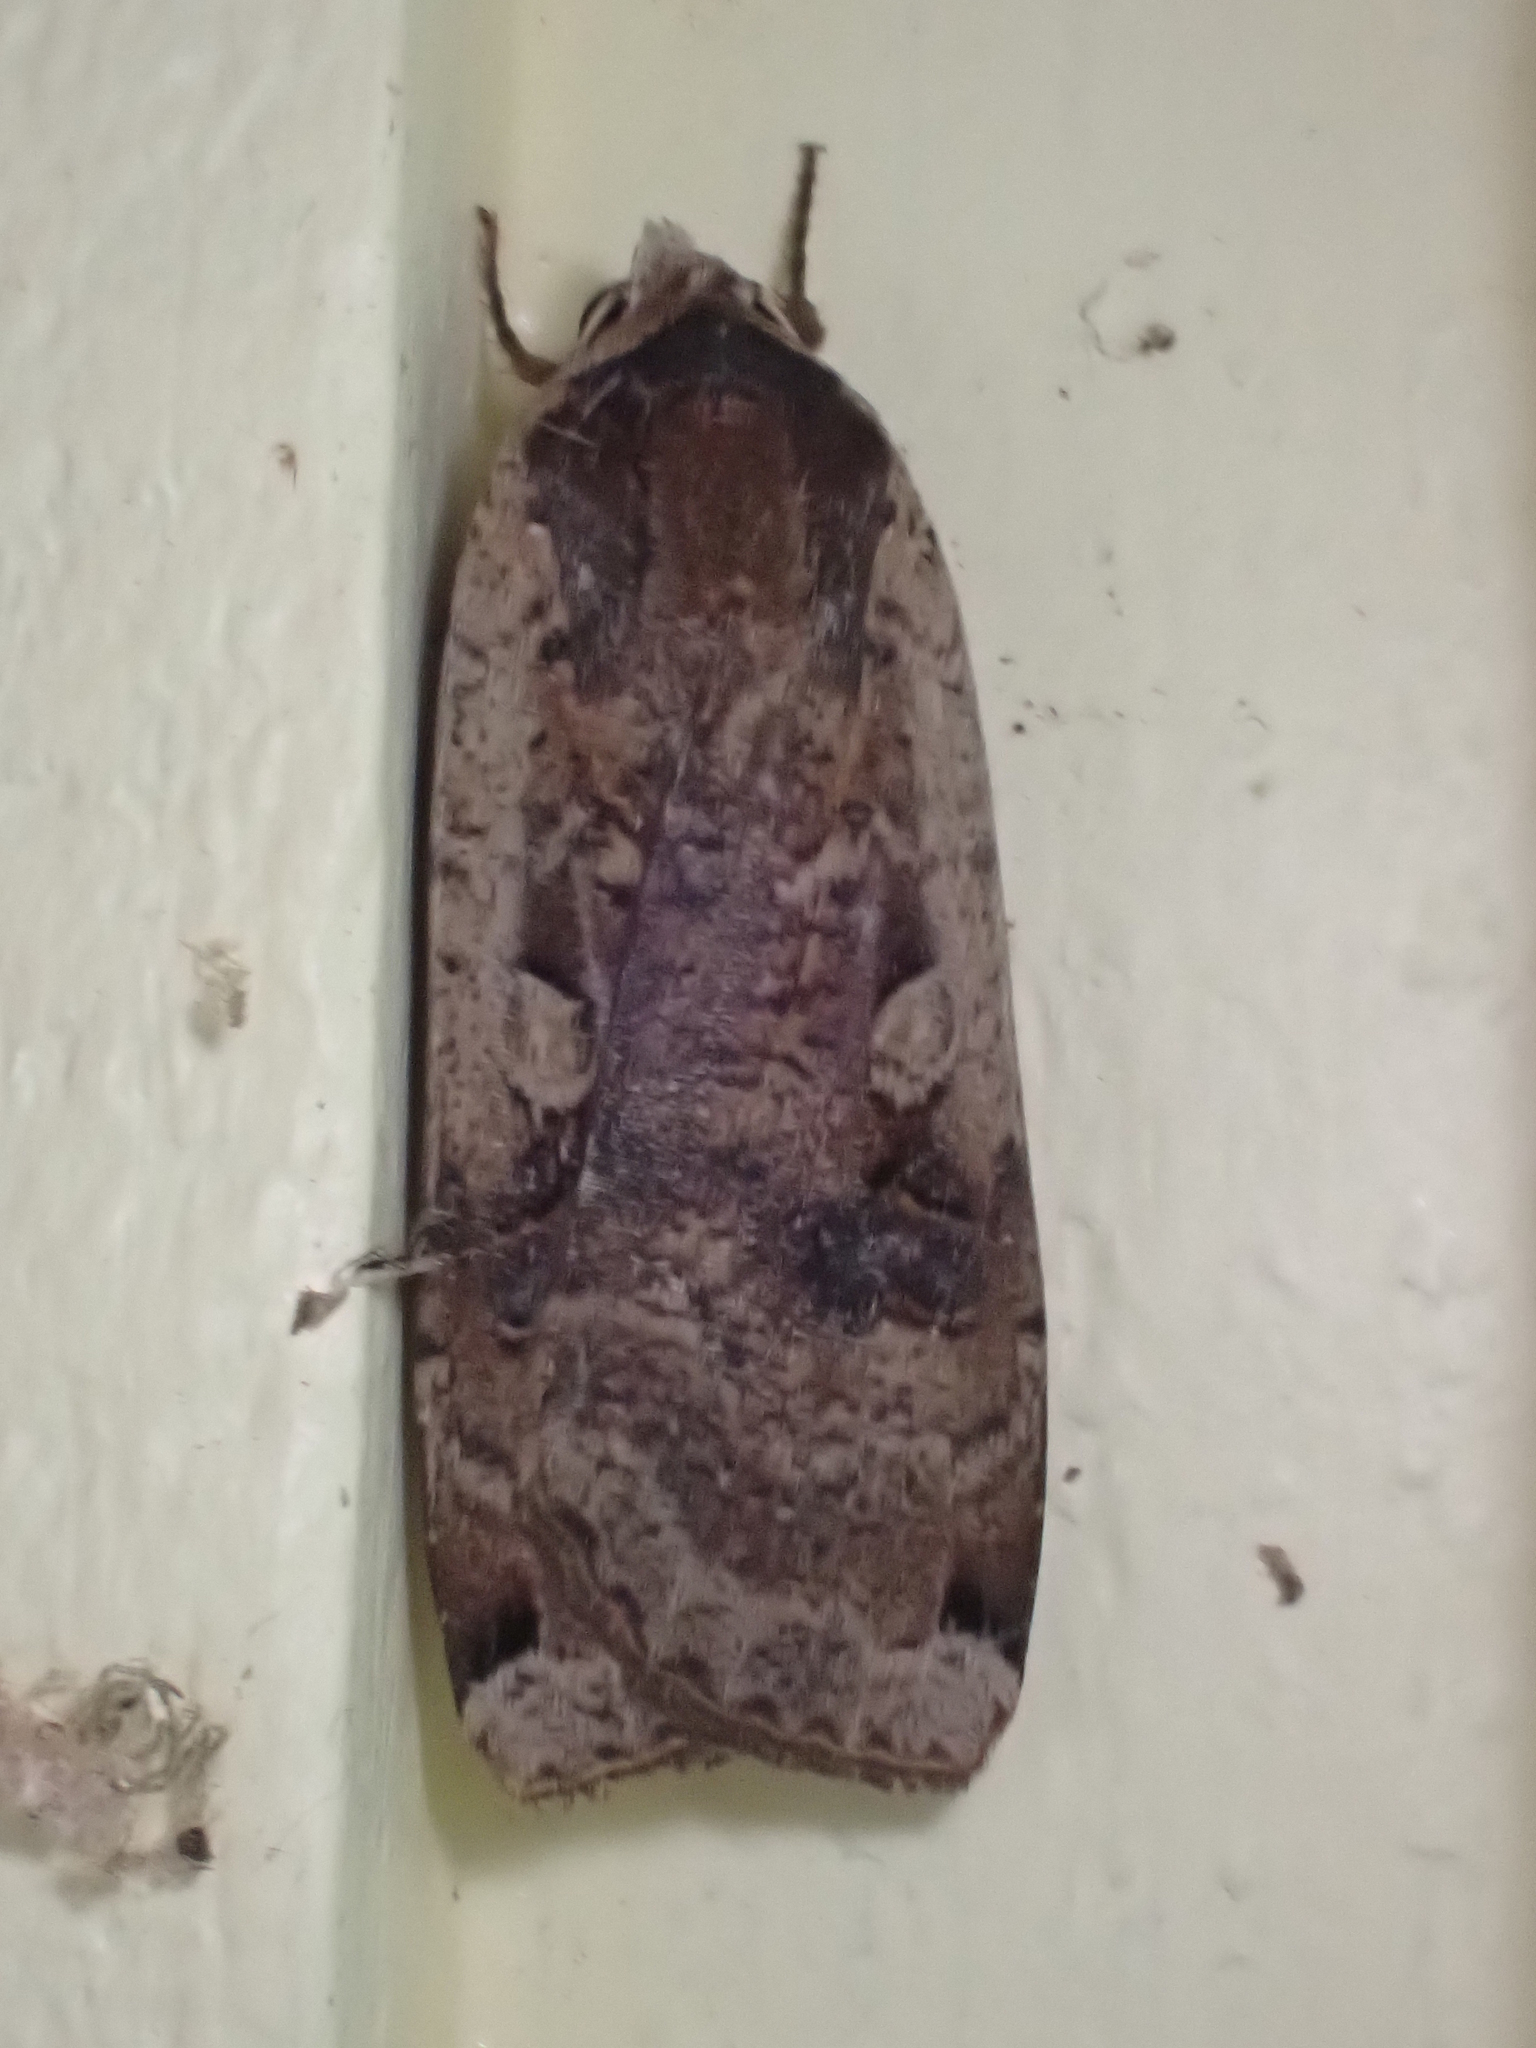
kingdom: Animalia
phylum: Arthropoda
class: Insecta
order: Lepidoptera
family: Noctuidae
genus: Noctua
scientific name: Noctua pronuba
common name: Large yellow underwing
